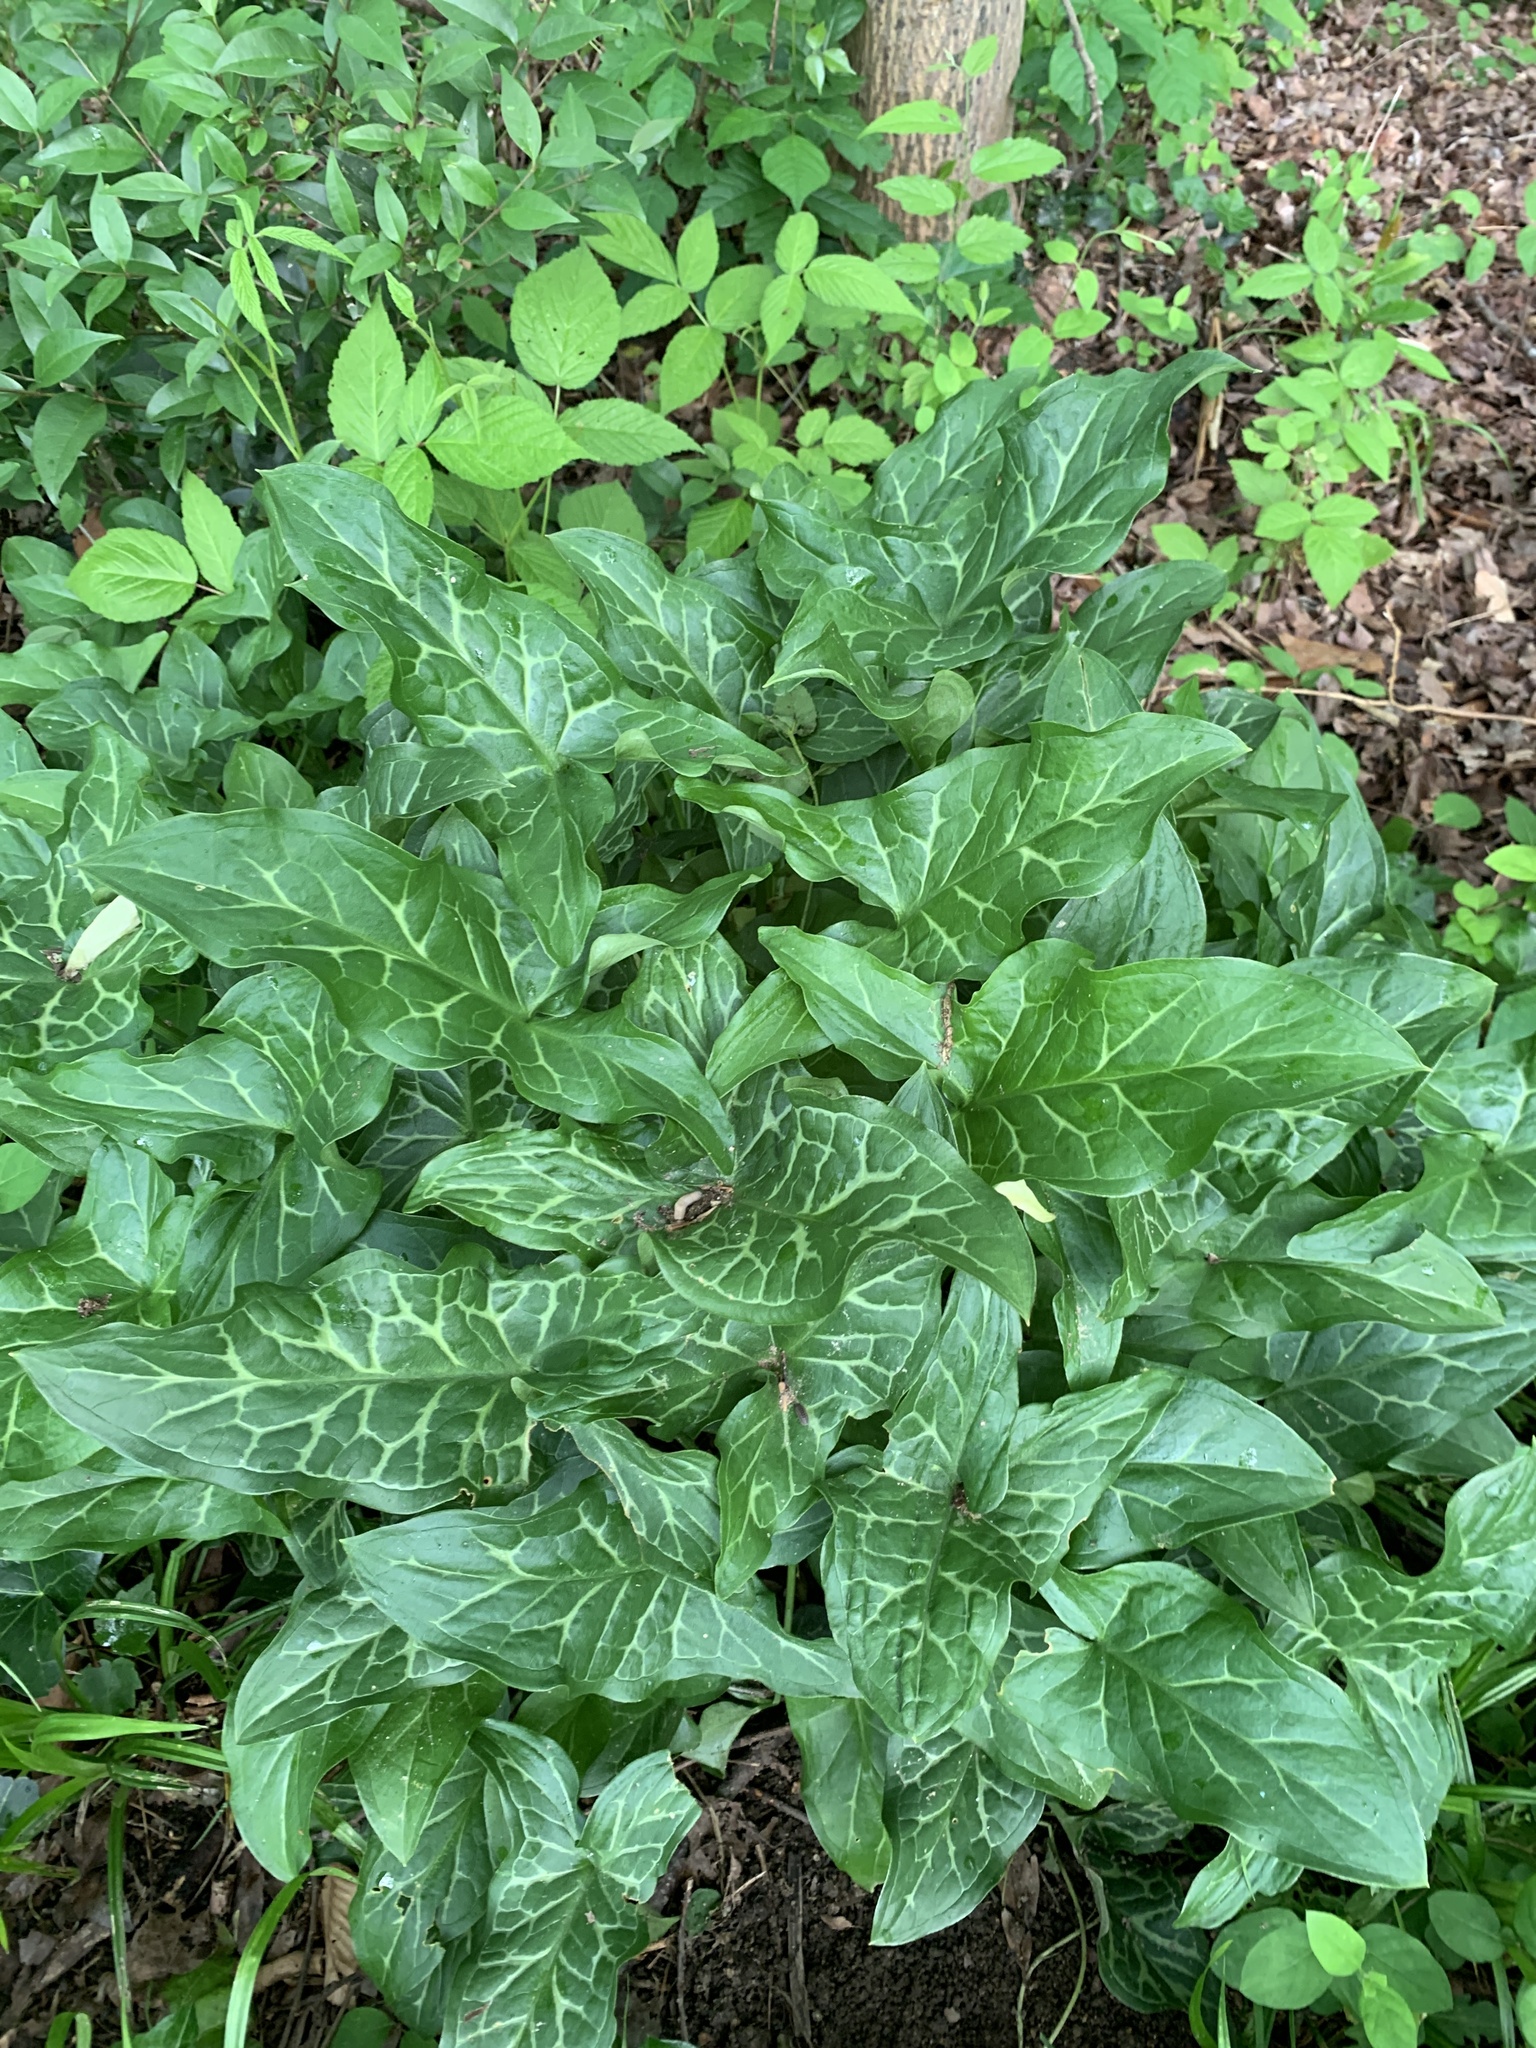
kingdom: Plantae
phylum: Tracheophyta
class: Liliopsida
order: Alismatales
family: Araceae
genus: Arum
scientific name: Arum italicum
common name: Italian lords-and-ladies
